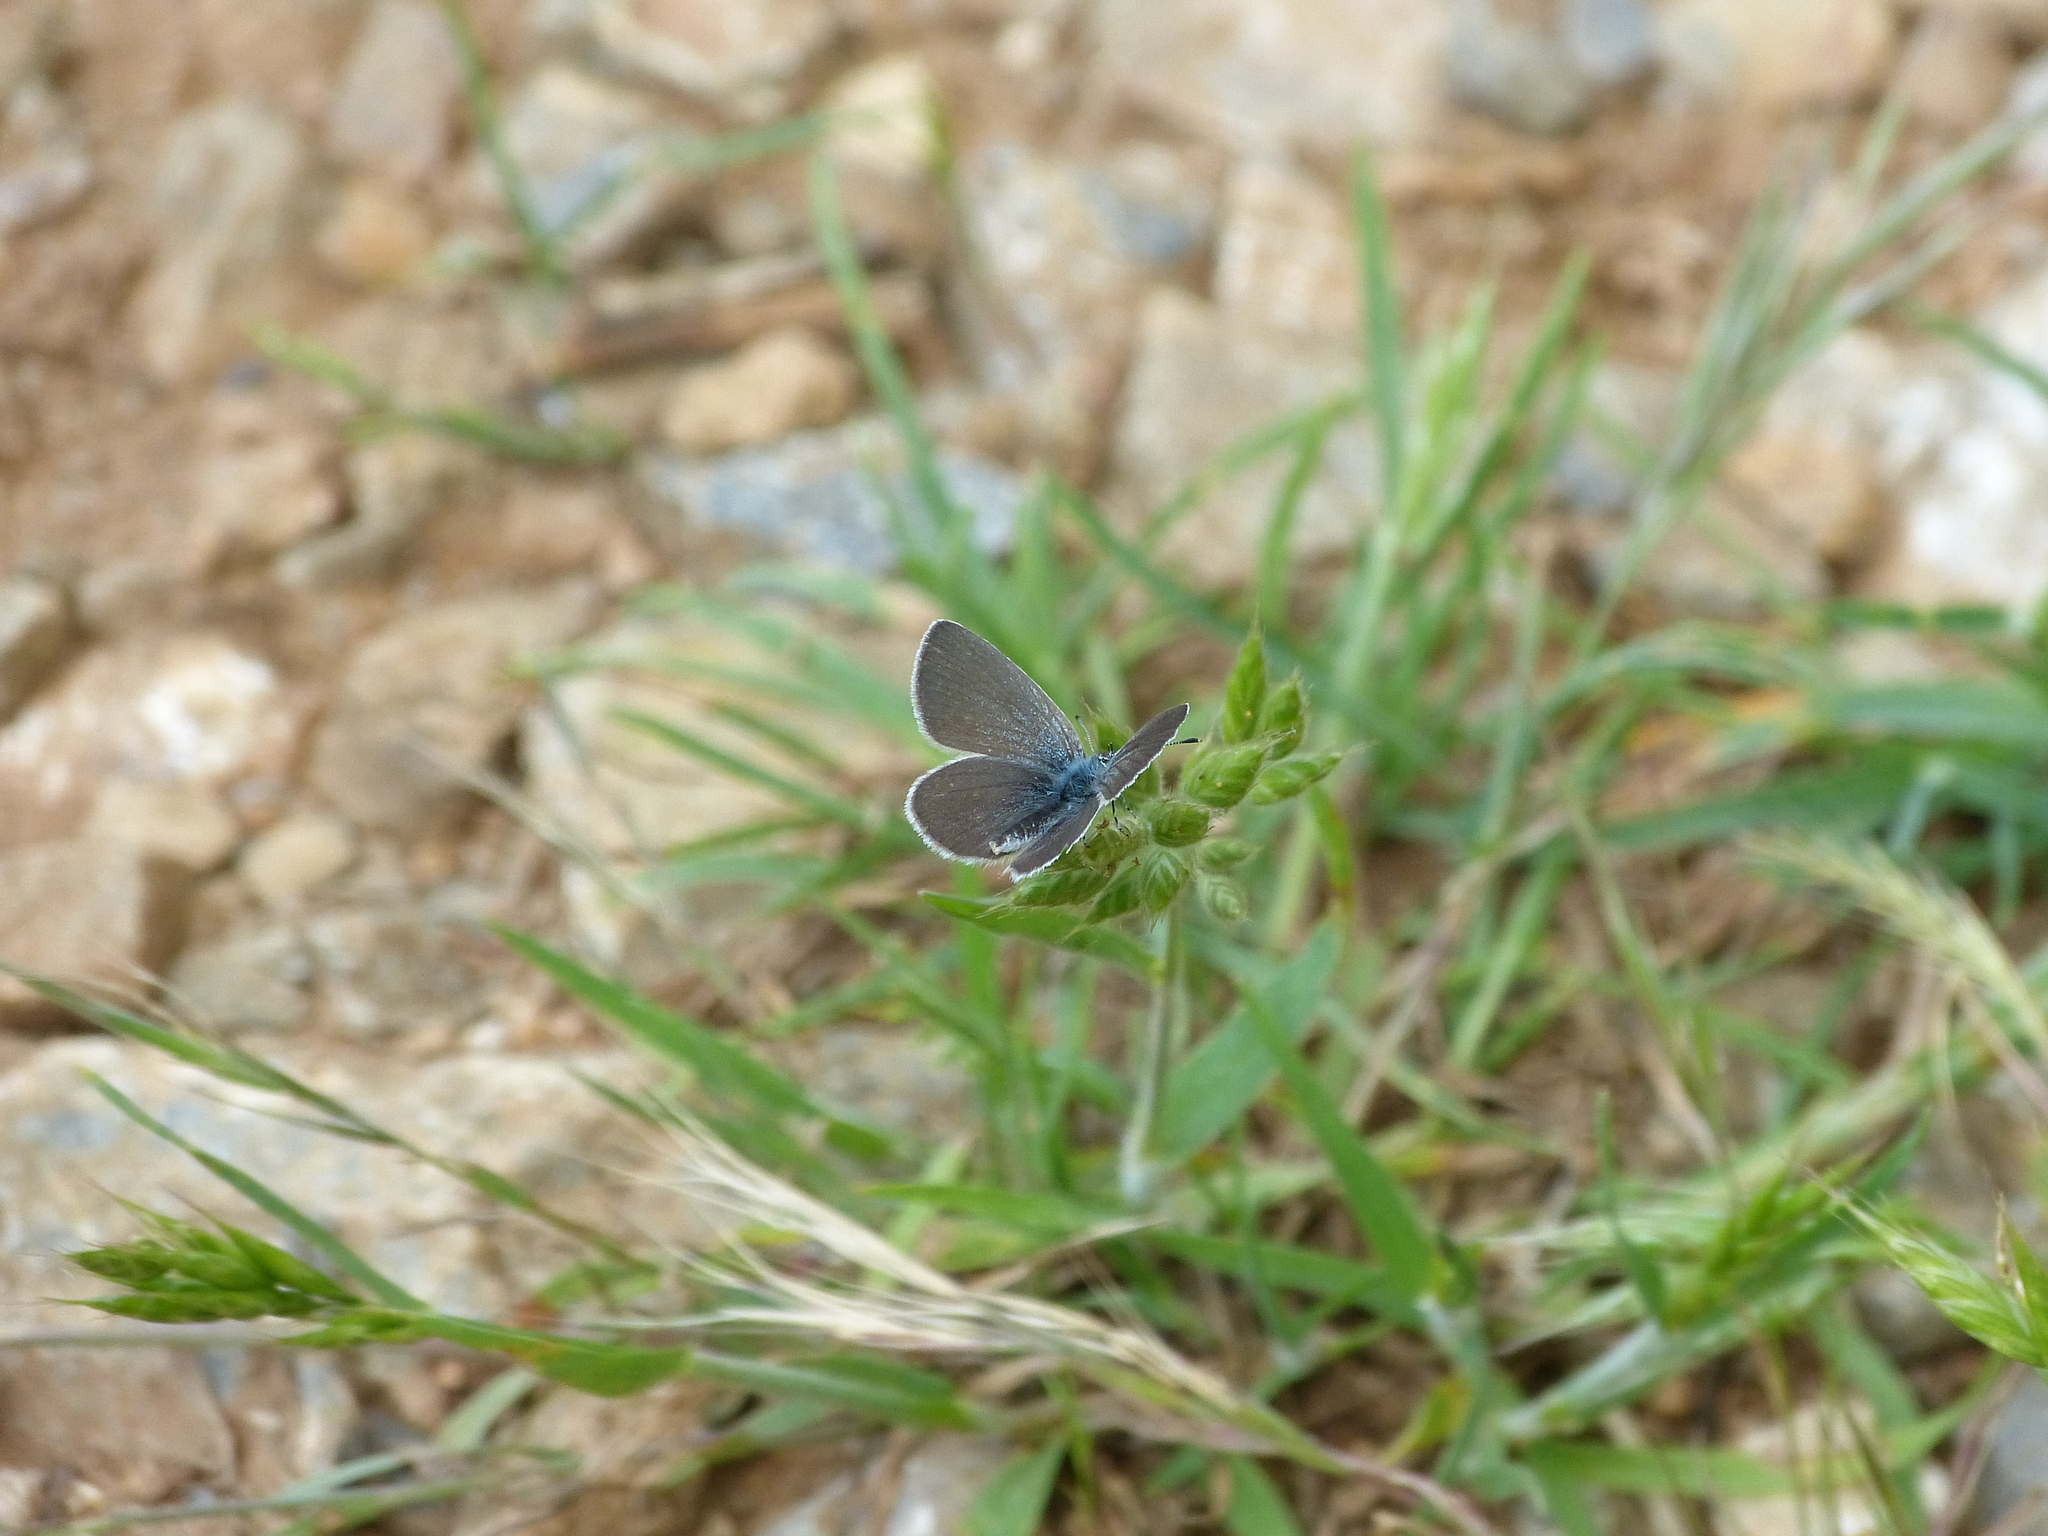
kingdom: Animalia
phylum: Arthropoda
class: Insecta
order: Lepidoptera
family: Lycaenidae
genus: Cupido
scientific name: Cupido minimus
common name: Small blue
